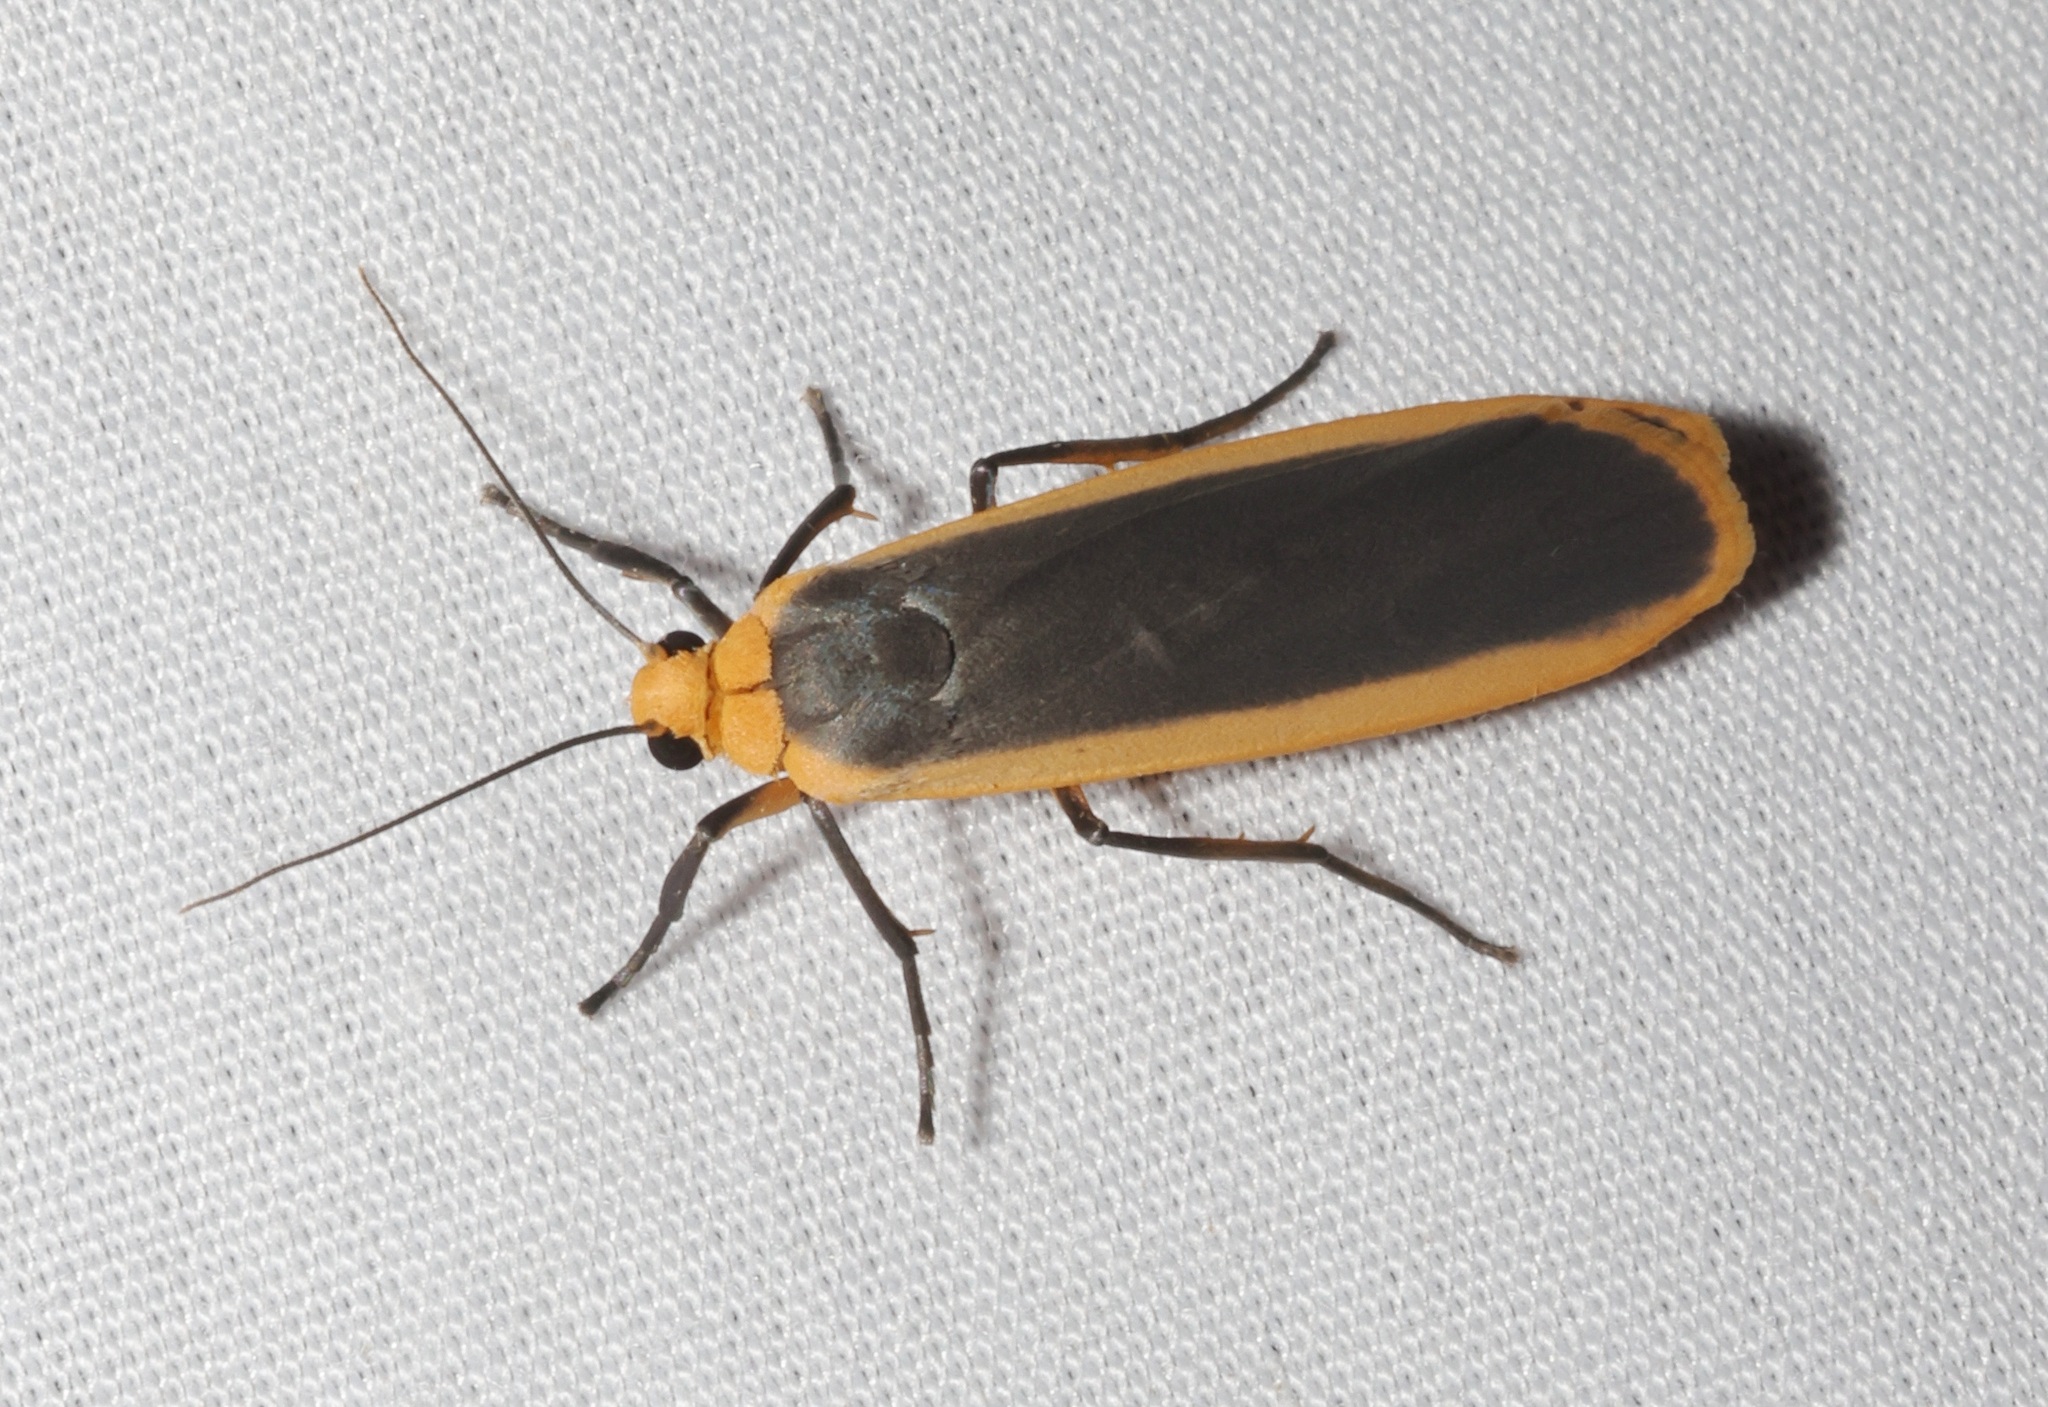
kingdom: Animalia
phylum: Arthropoda
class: Insecta
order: Lepidoptera
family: Erebidae
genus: Brunia
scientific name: Brunia antica
